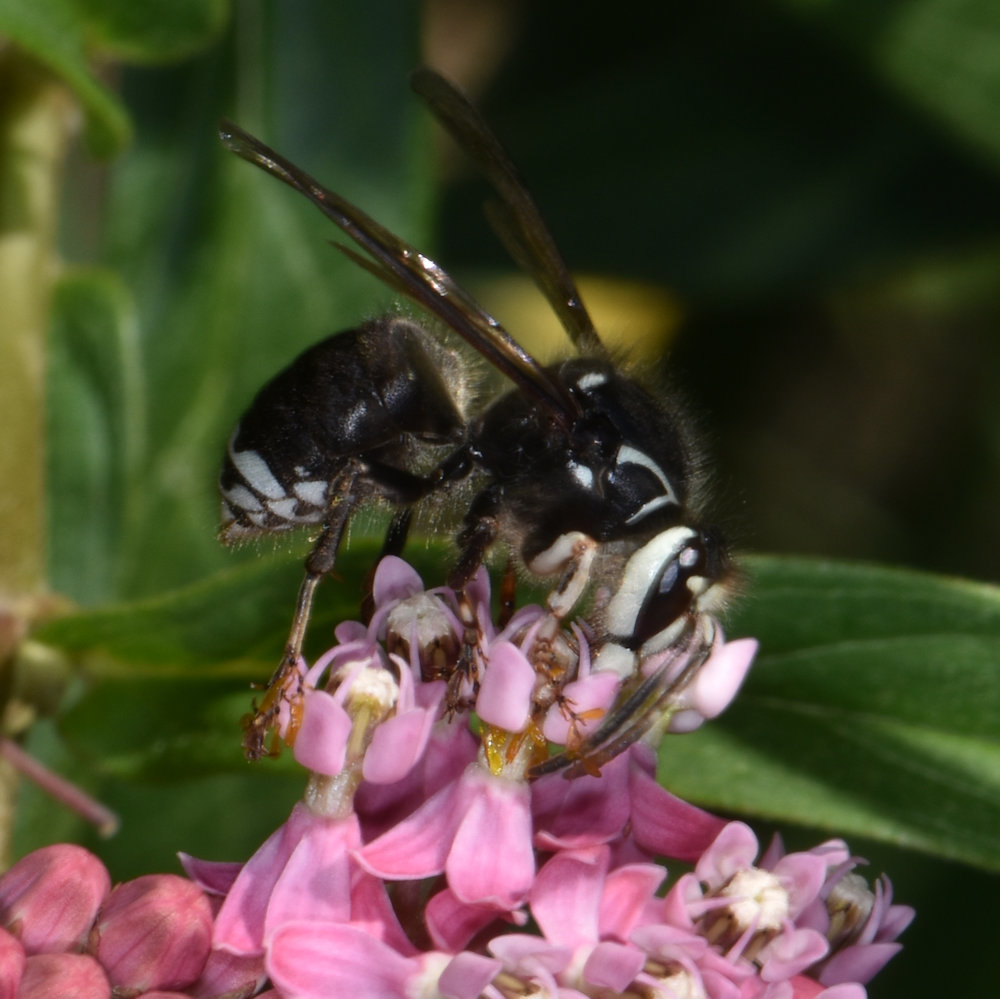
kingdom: Animalia
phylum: Arthropoda
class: Insecta
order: Hymenoptera
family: Vespidae
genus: Dolichovespula
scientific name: Dolichovespula maculata
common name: Bald-faced hornet
